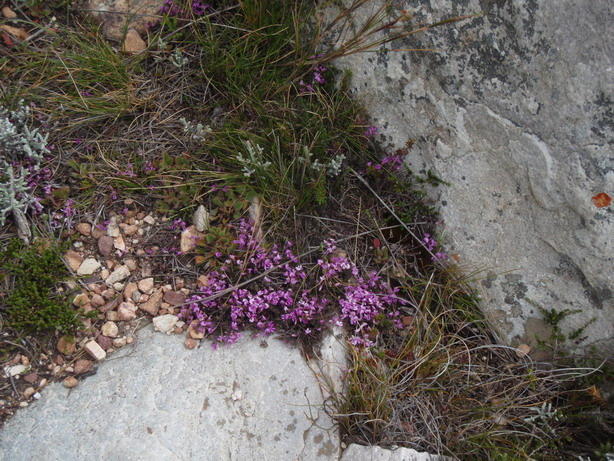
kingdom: Plantae
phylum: Tracheophyta
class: Magnoliopsida
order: Fabales
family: Fabaceae
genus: Indigofera
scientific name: Indigofera
